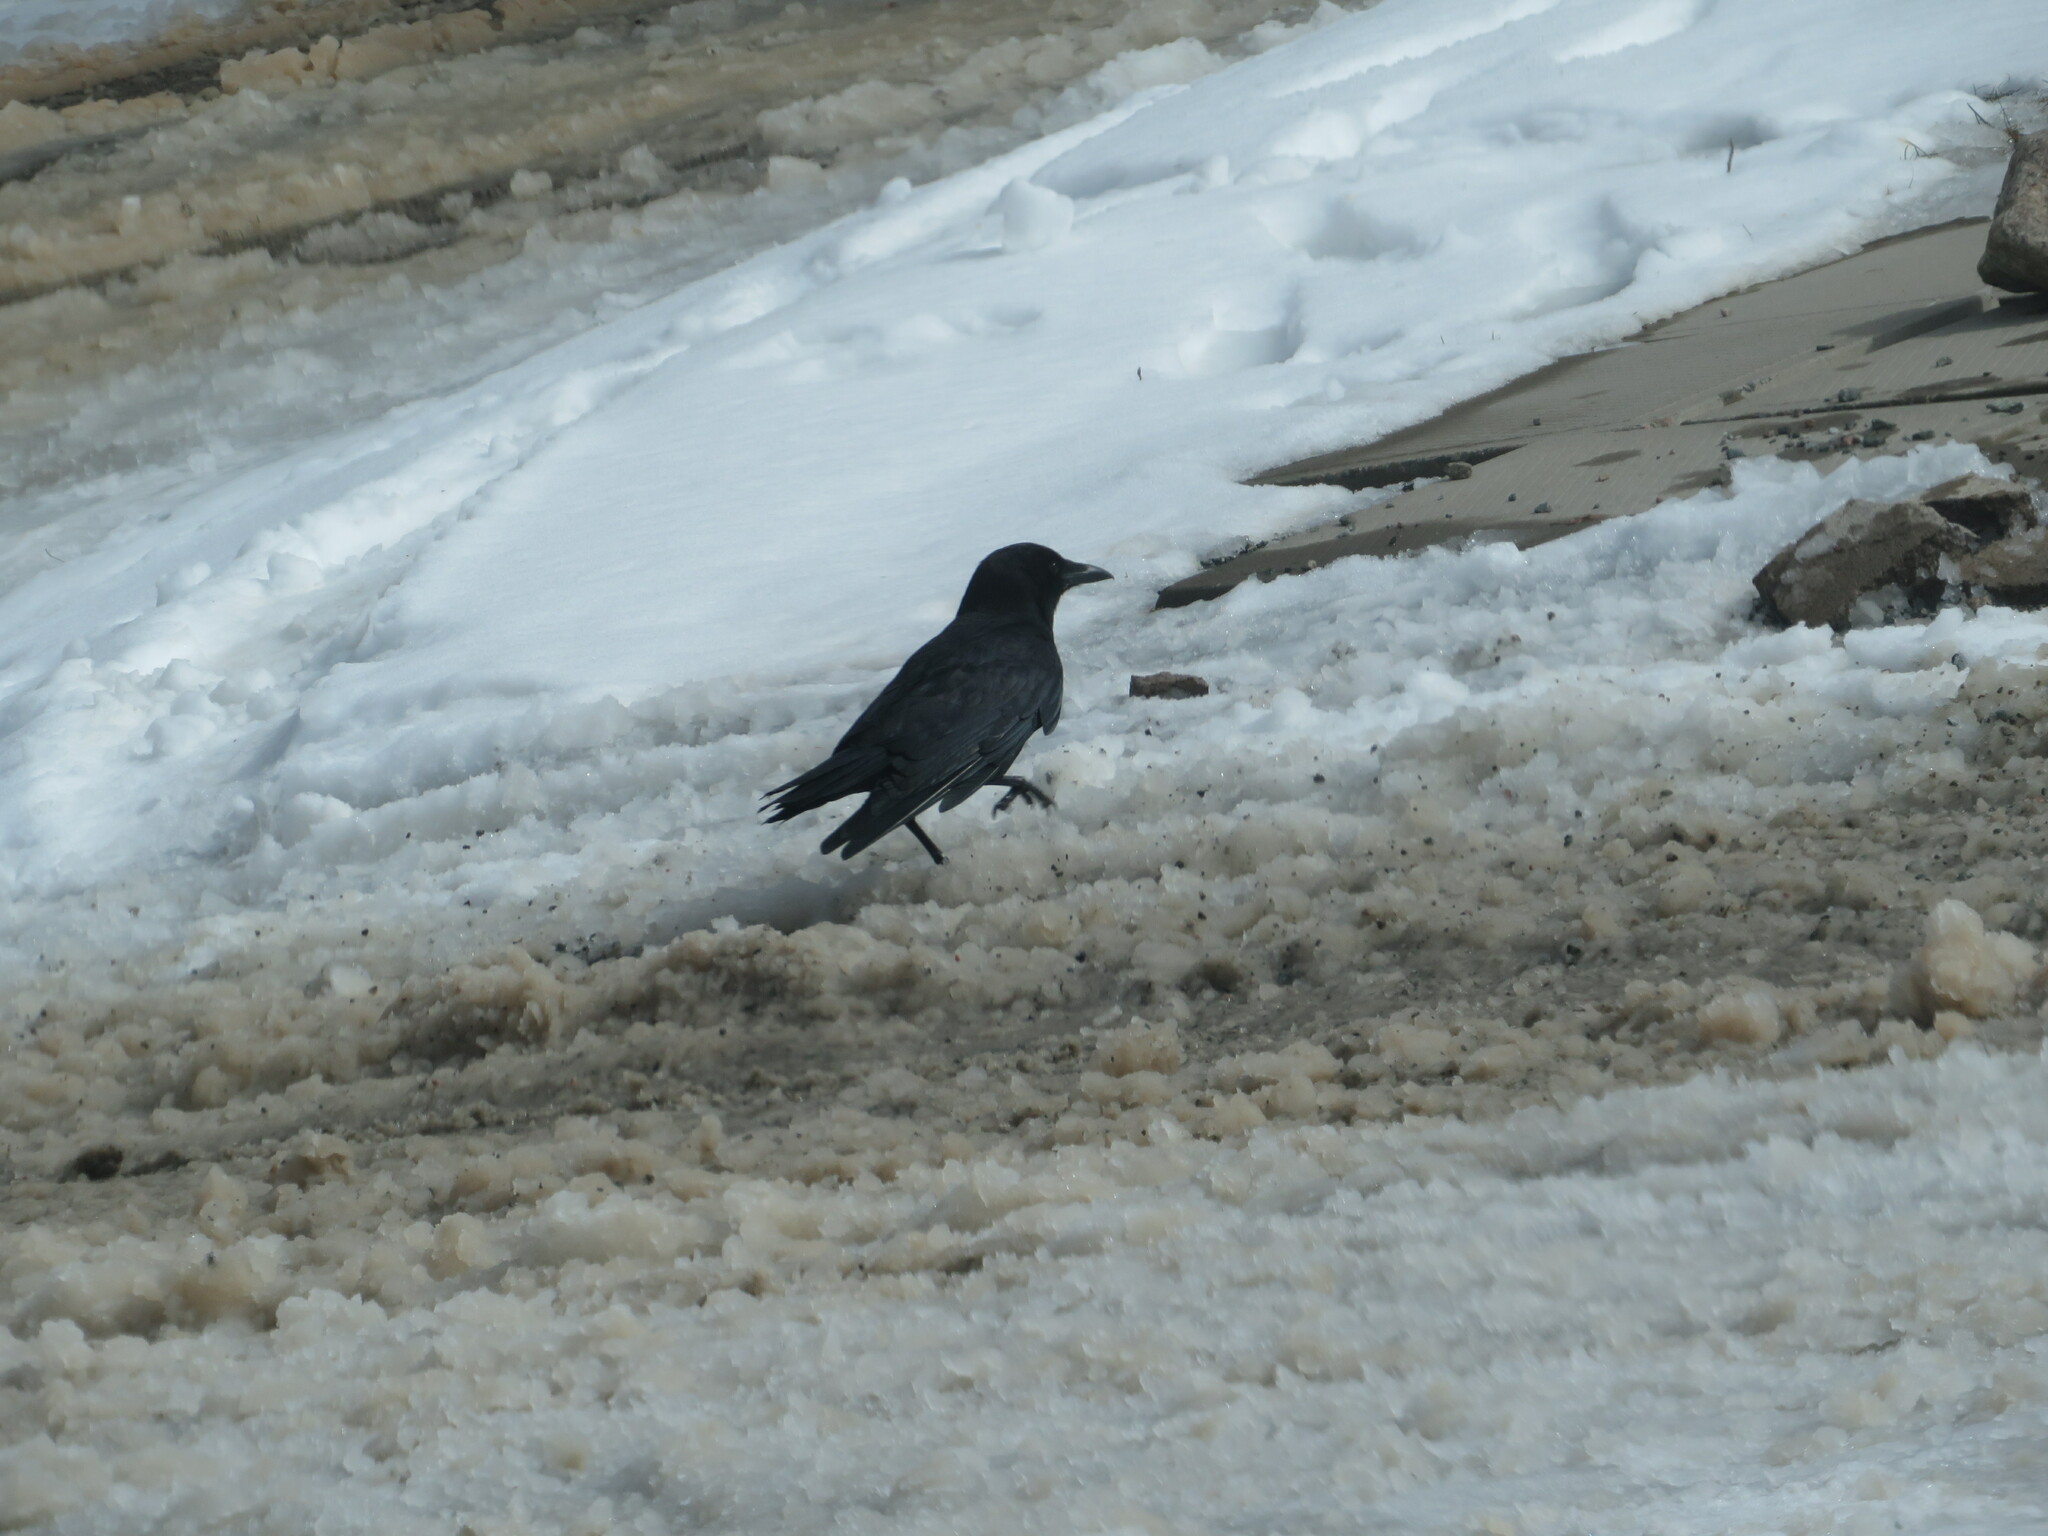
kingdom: Animalia
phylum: Chordata
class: Aves
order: Passeriformes
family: Corvidae
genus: Corvus
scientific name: Corvus brachyrhynchos
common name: American crow
